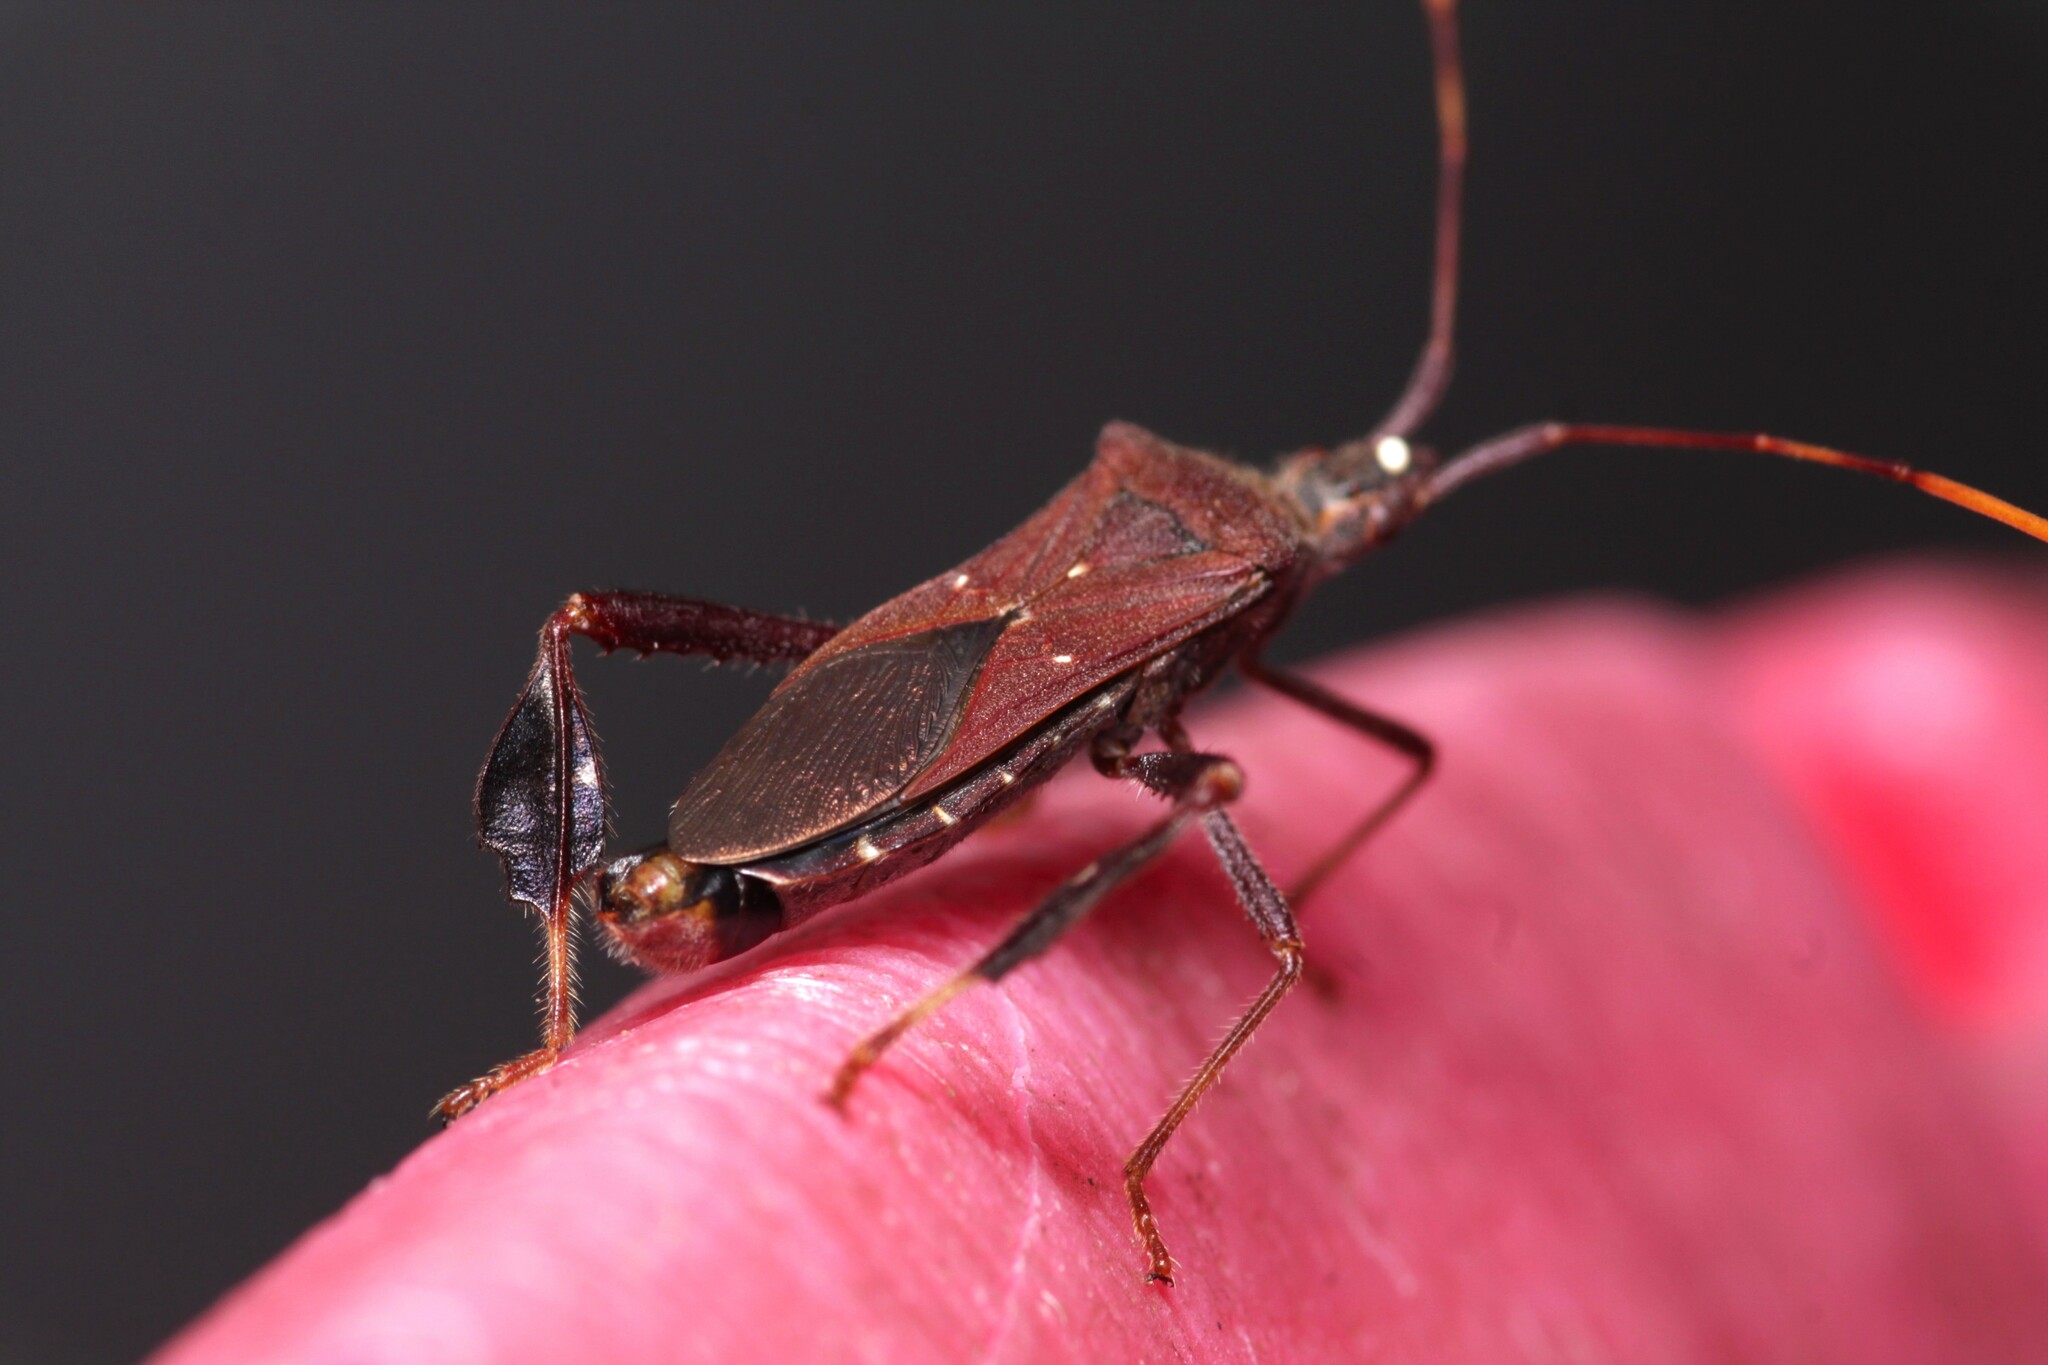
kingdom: Animalia
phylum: Arthropoda
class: Insecta
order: Hemiptera
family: Coreidae
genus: Leptoglossus
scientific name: Leptoglossus oppositus
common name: Northern leaf-footed bug
